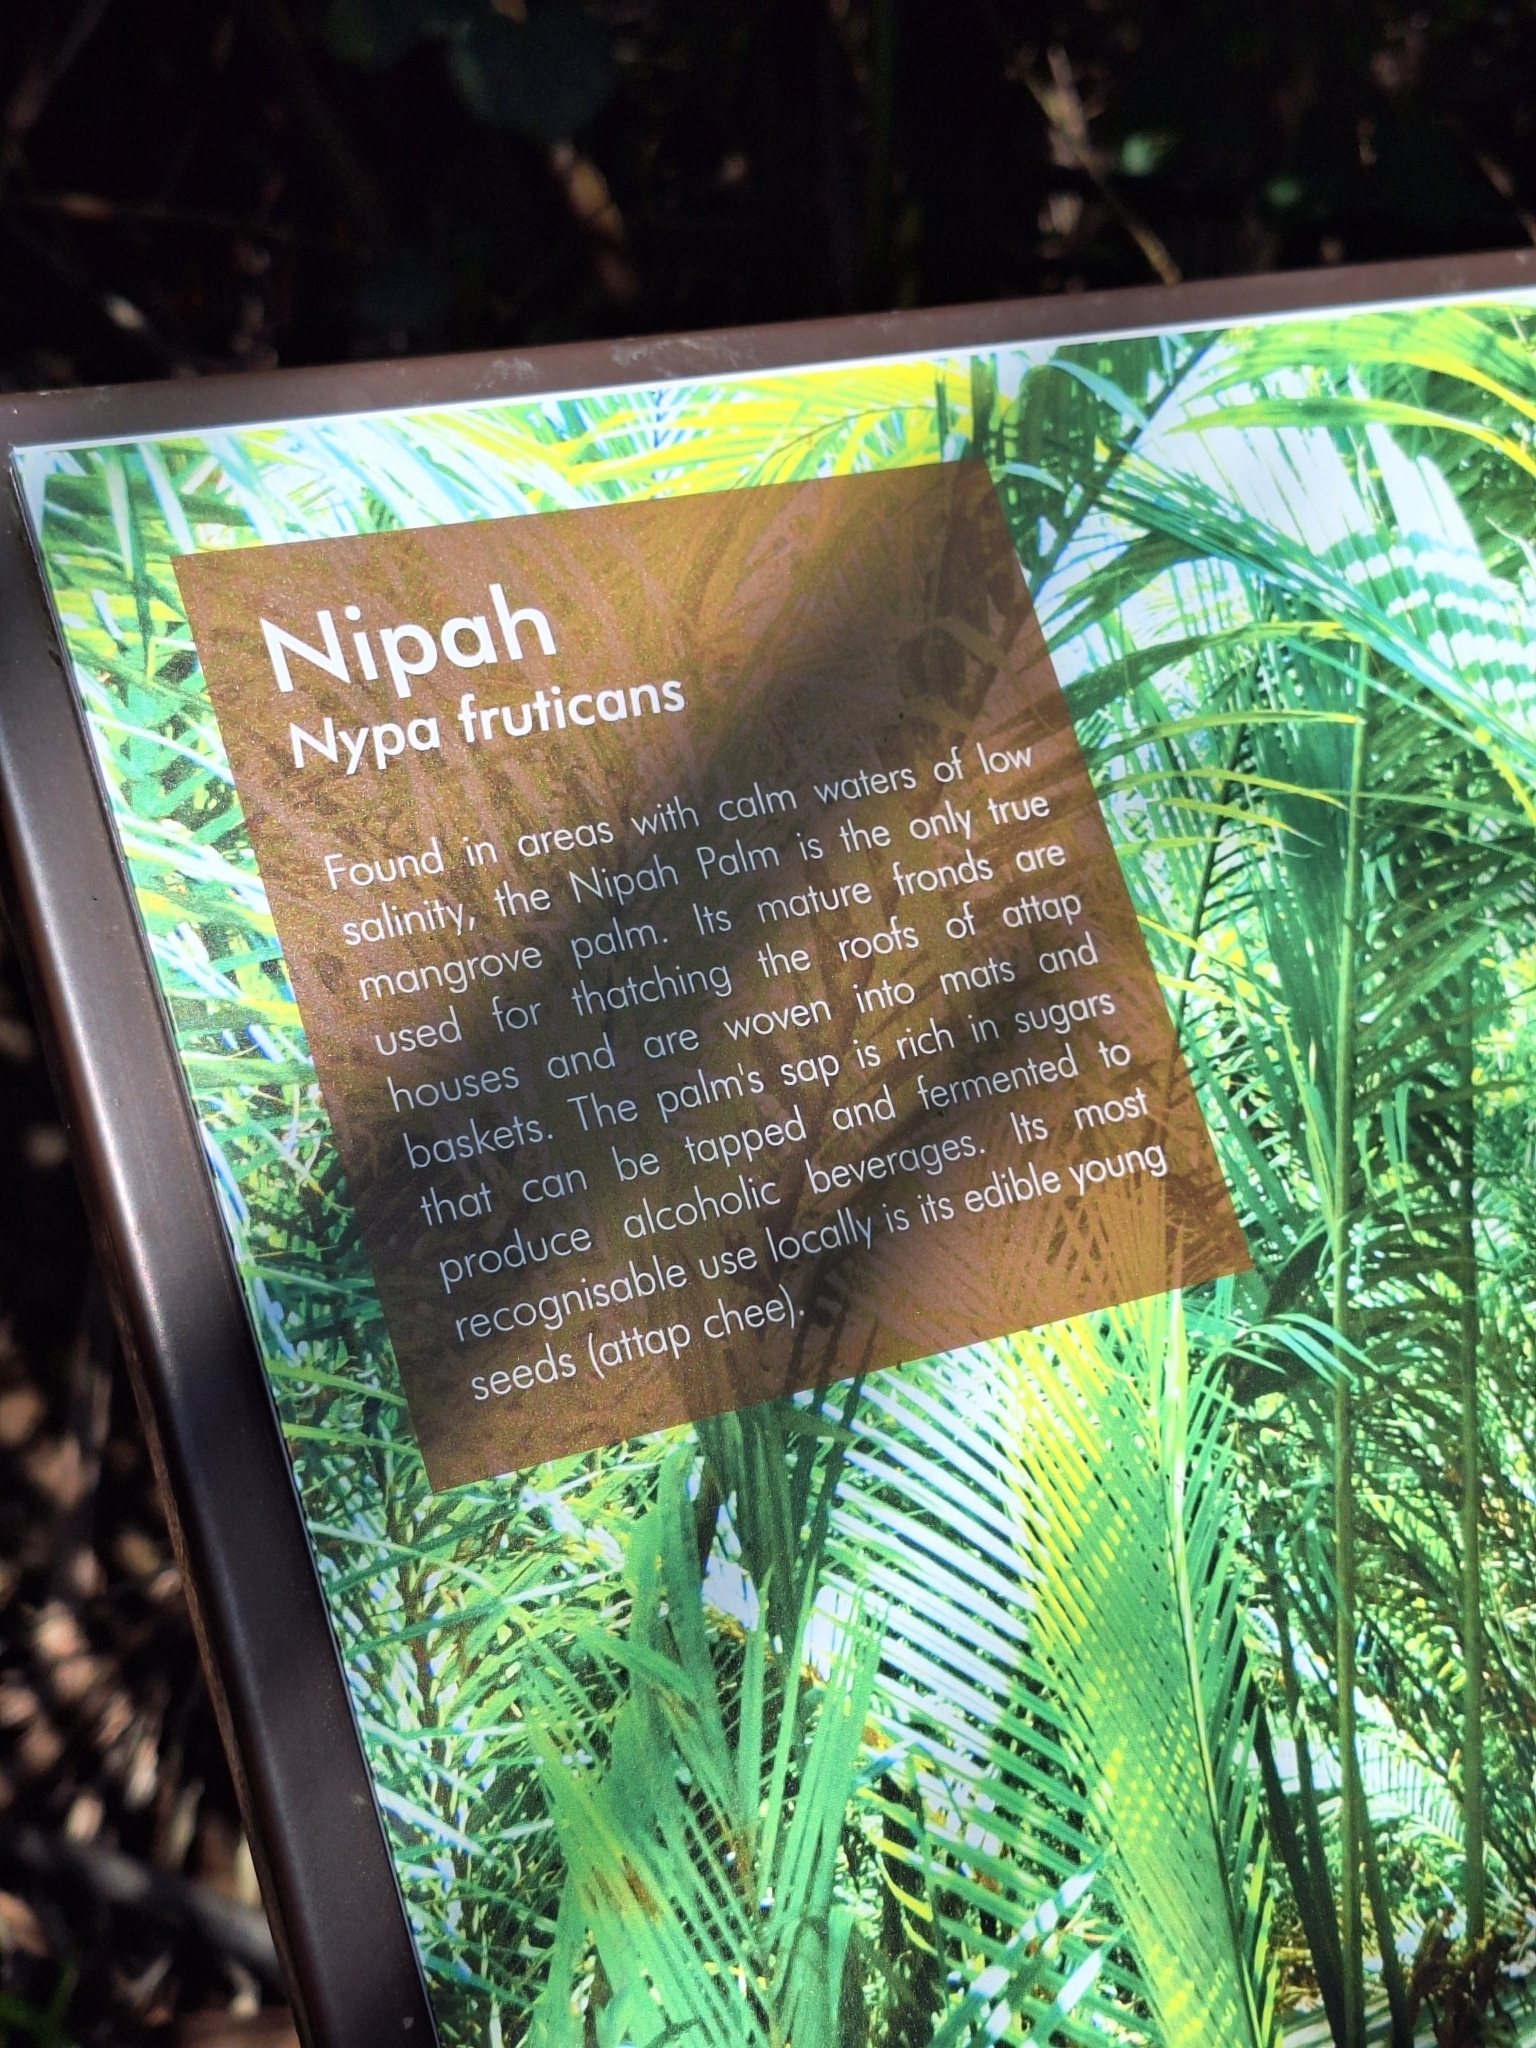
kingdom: Plantae
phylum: Tracheophyta
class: Liliopsida
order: Arecales
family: Arecaceae
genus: Nypa
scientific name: Nypa fruticans
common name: Mangrove palm
